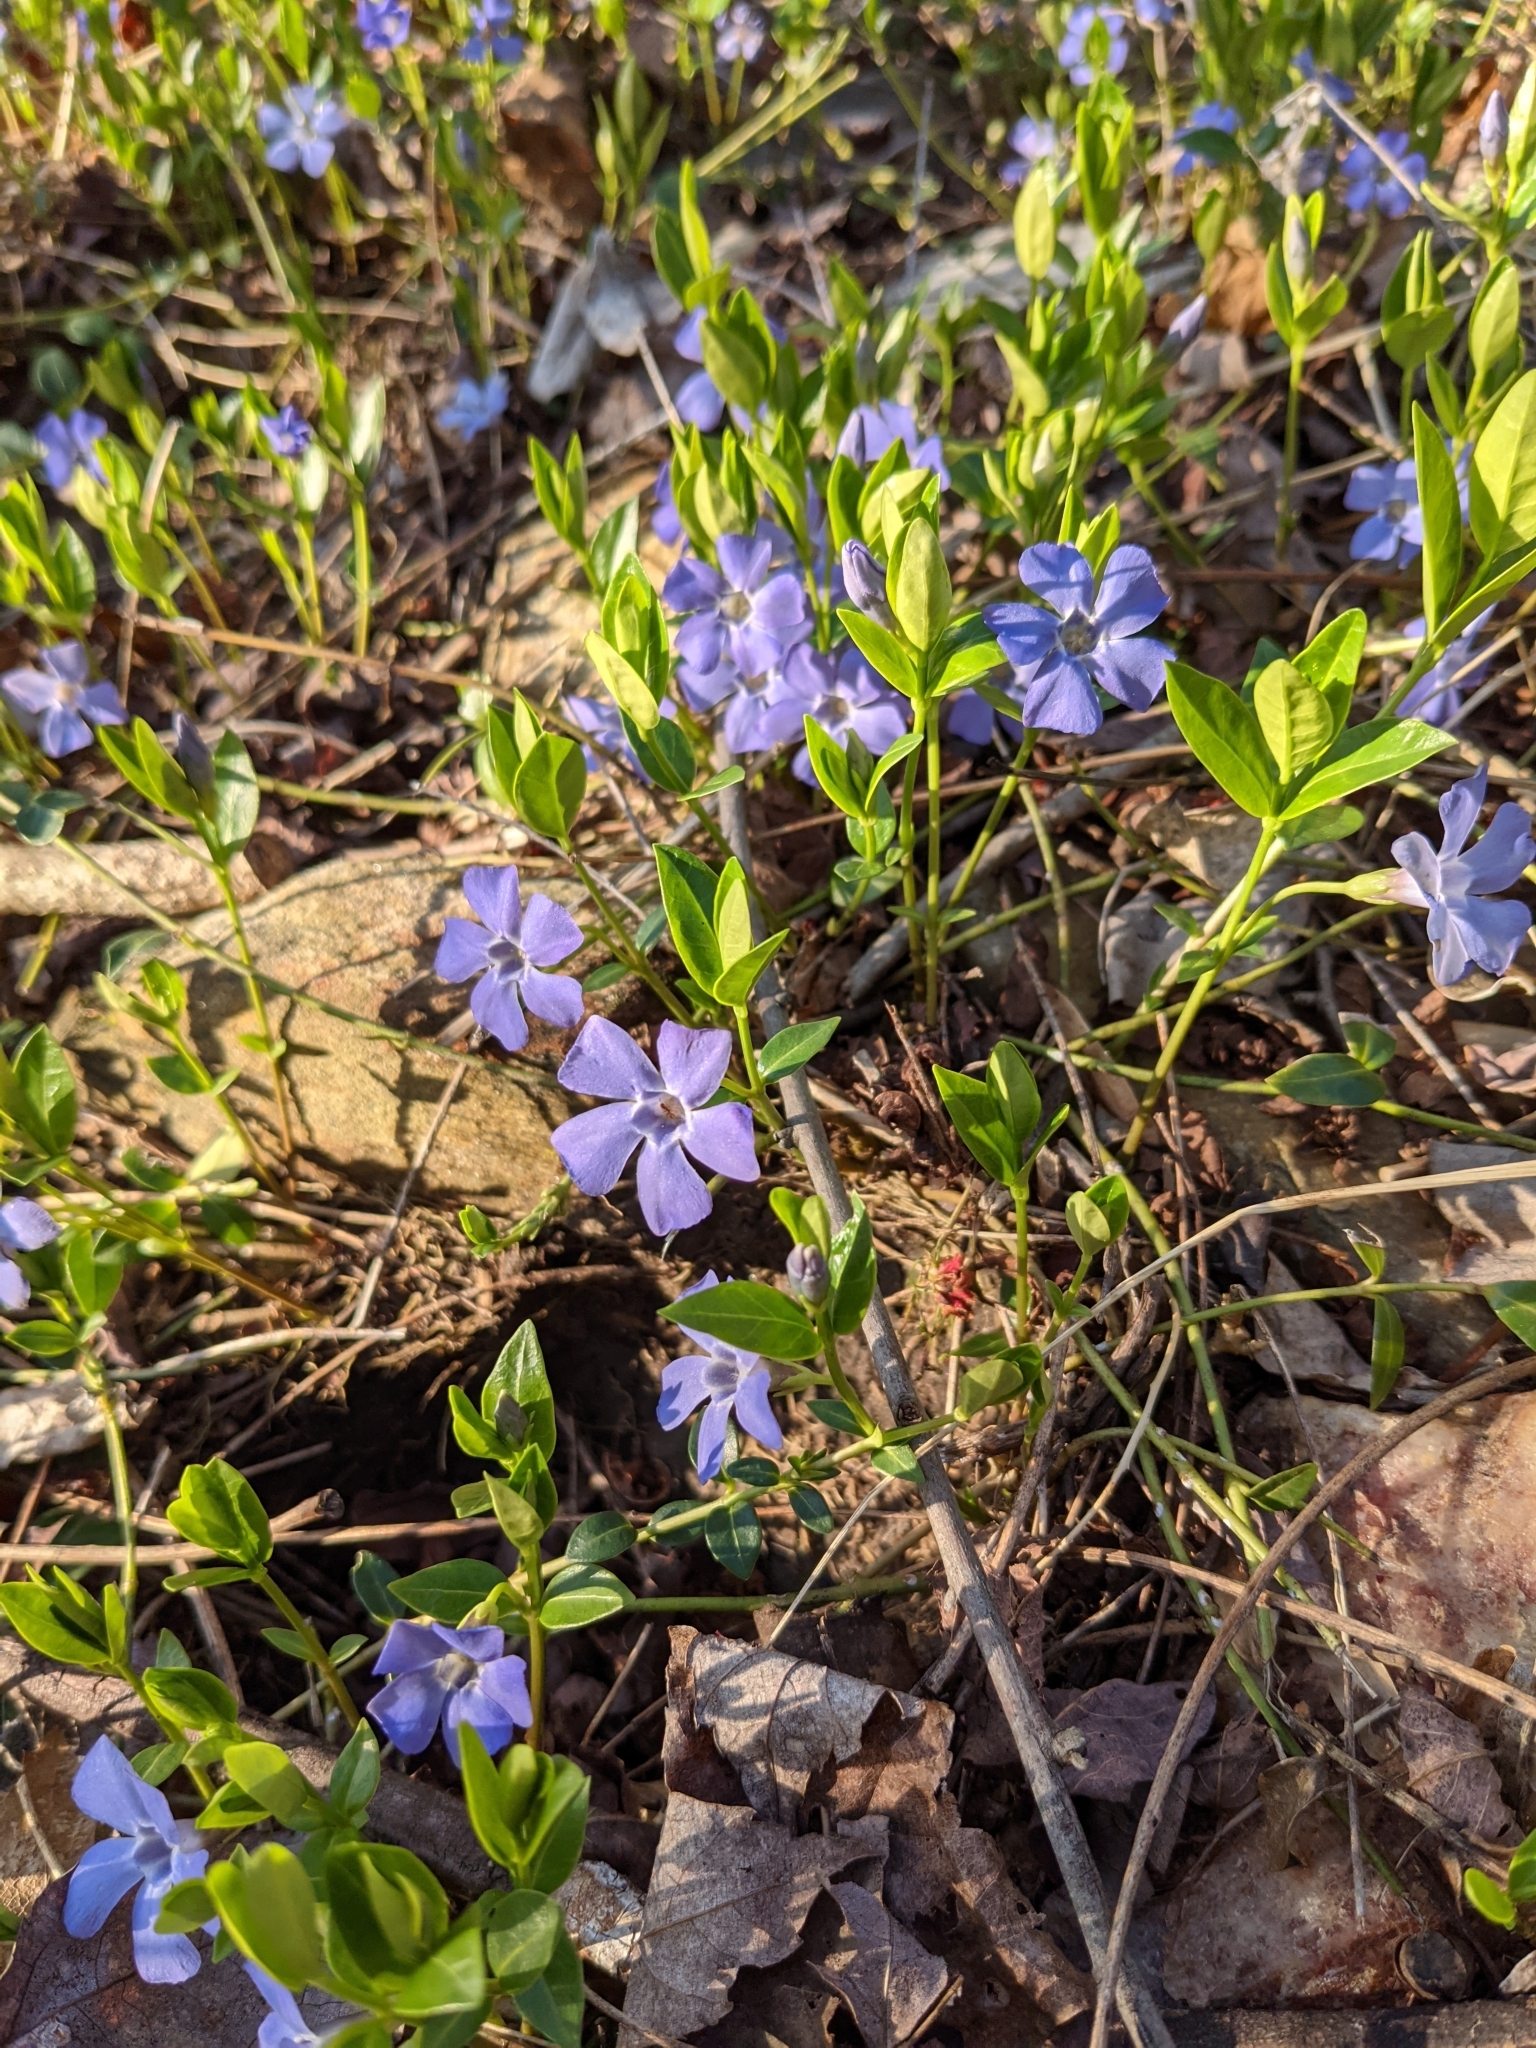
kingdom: Plantae
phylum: Tracheophyta
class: Magnoliopsida
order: Gentianales
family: Apocynaceae
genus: Vinca
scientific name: Vinca minor
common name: Lesser periwinkle
